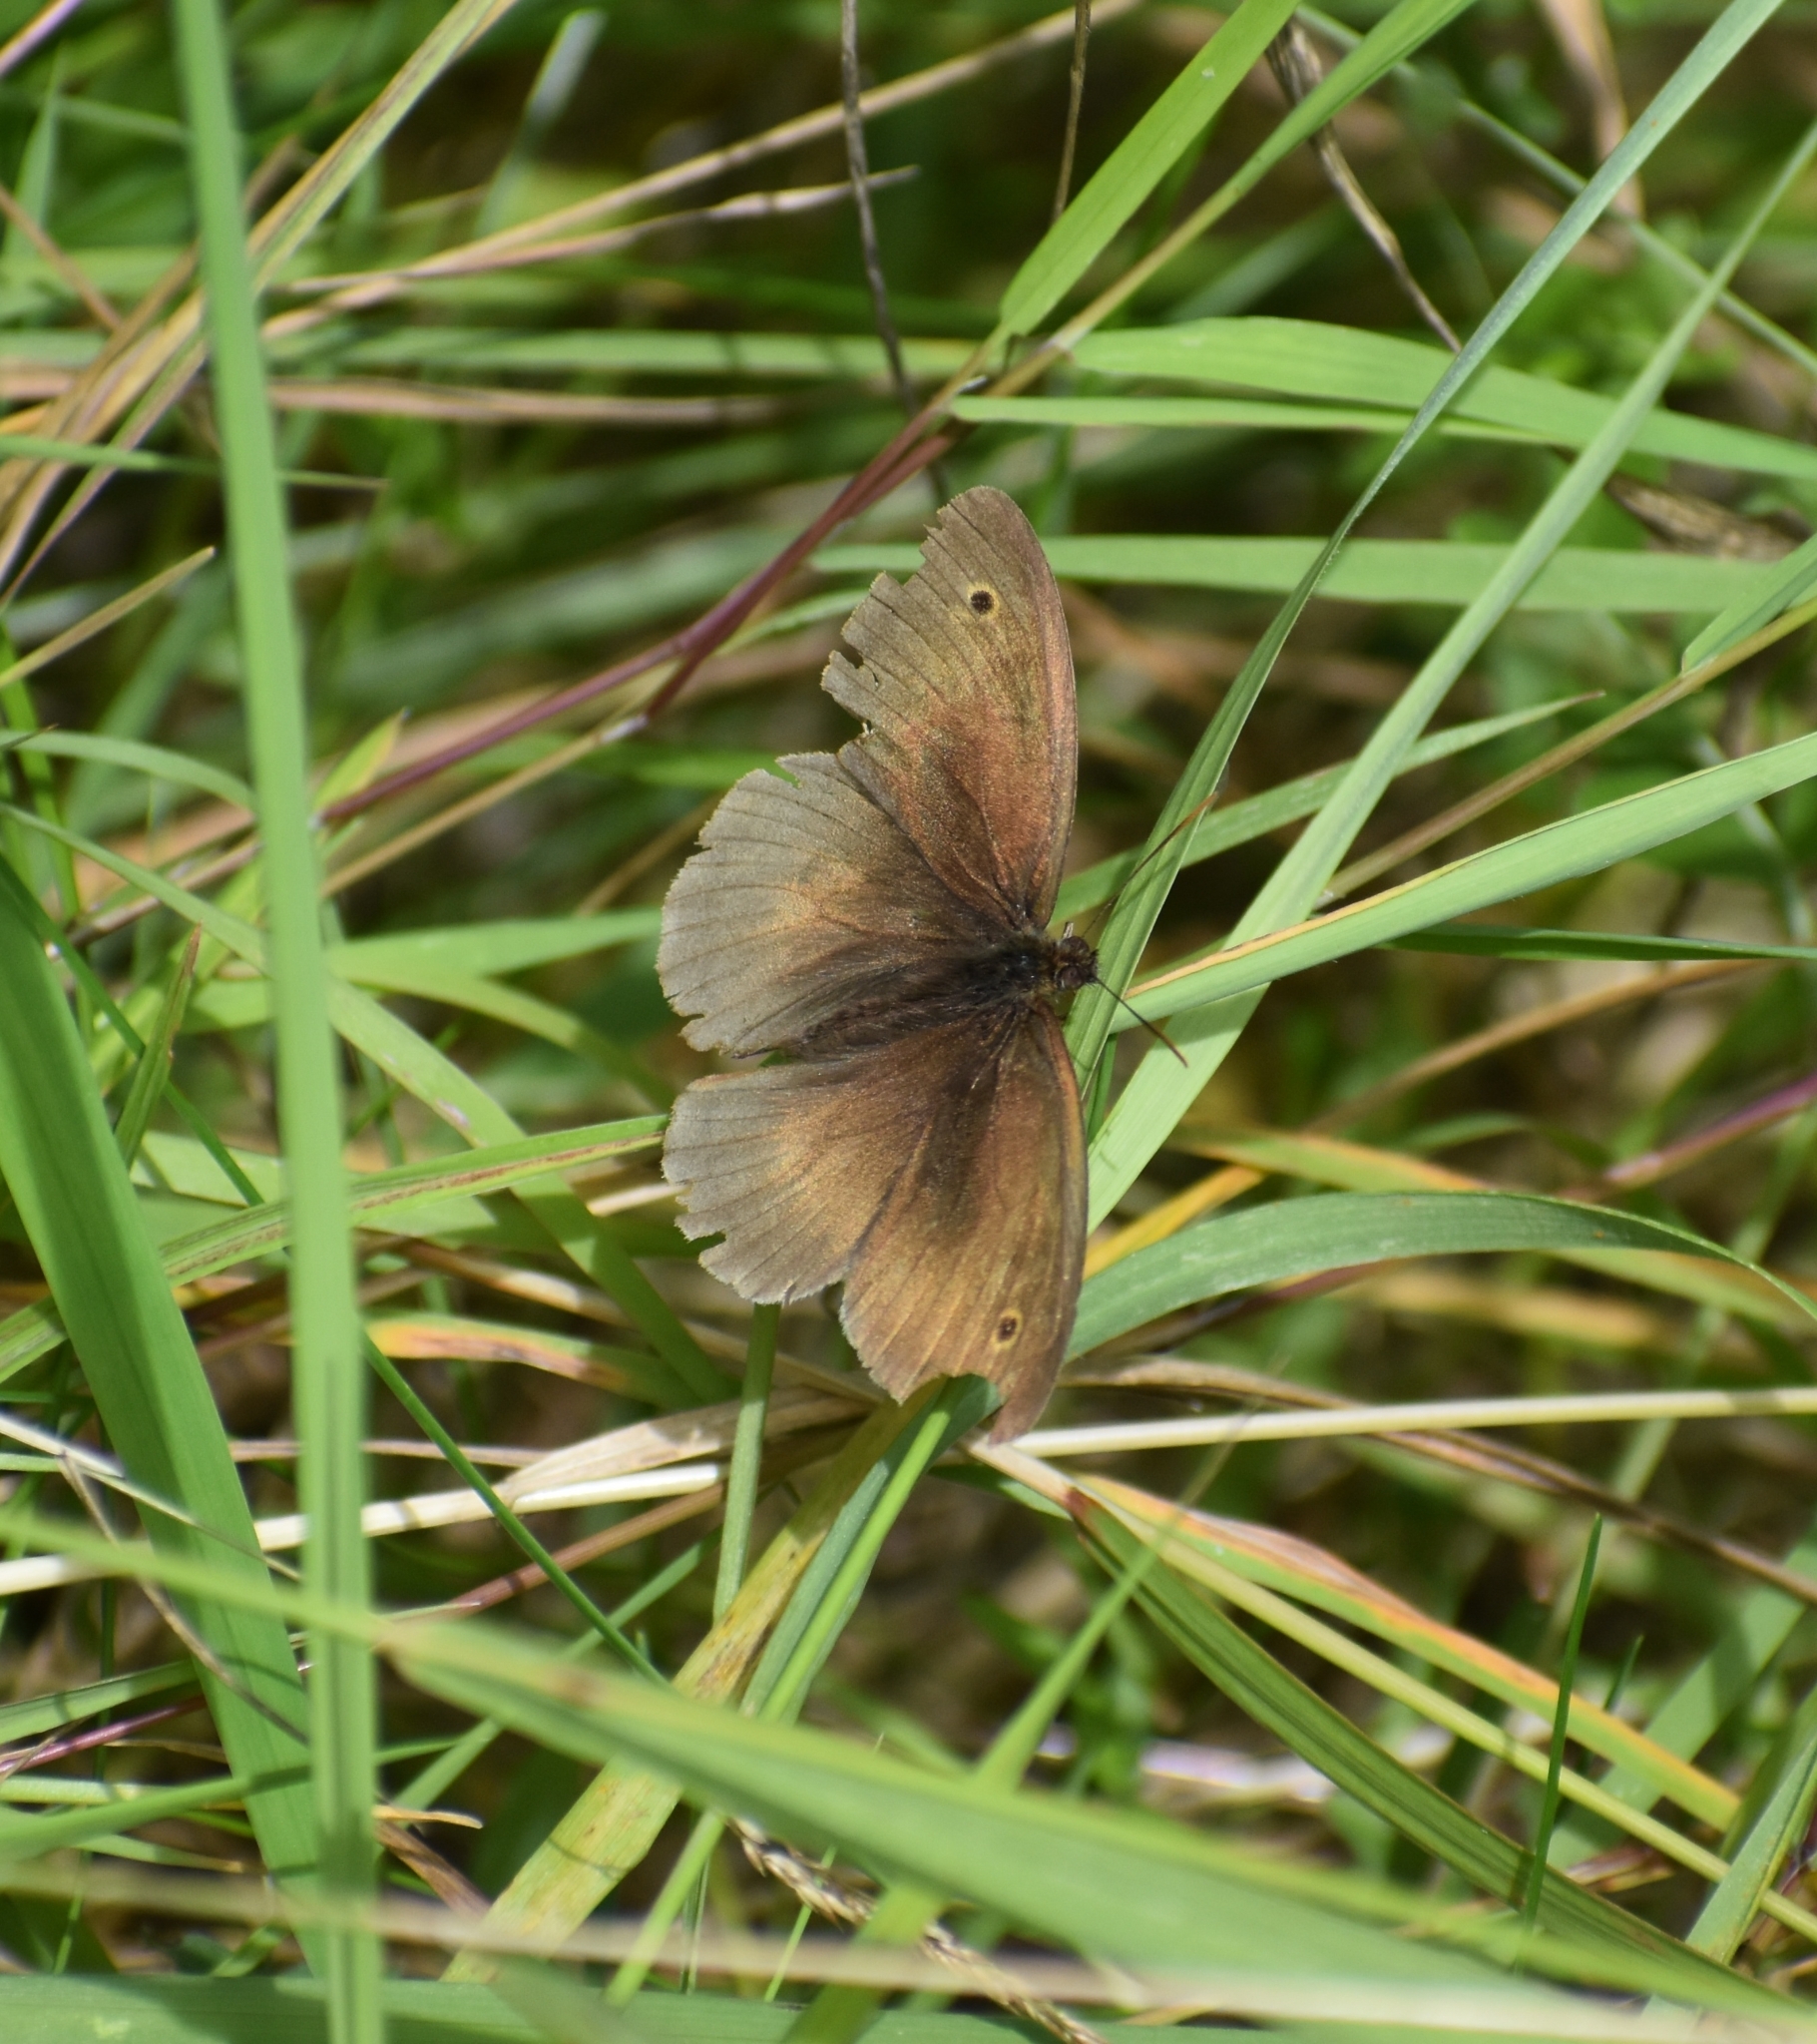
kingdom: Animalia
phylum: Arthropoda
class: Insecta
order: Lepidoptera
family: Nymphalidae
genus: Aphantopus
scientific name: Aphantopus hyperantus
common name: Ringlet
